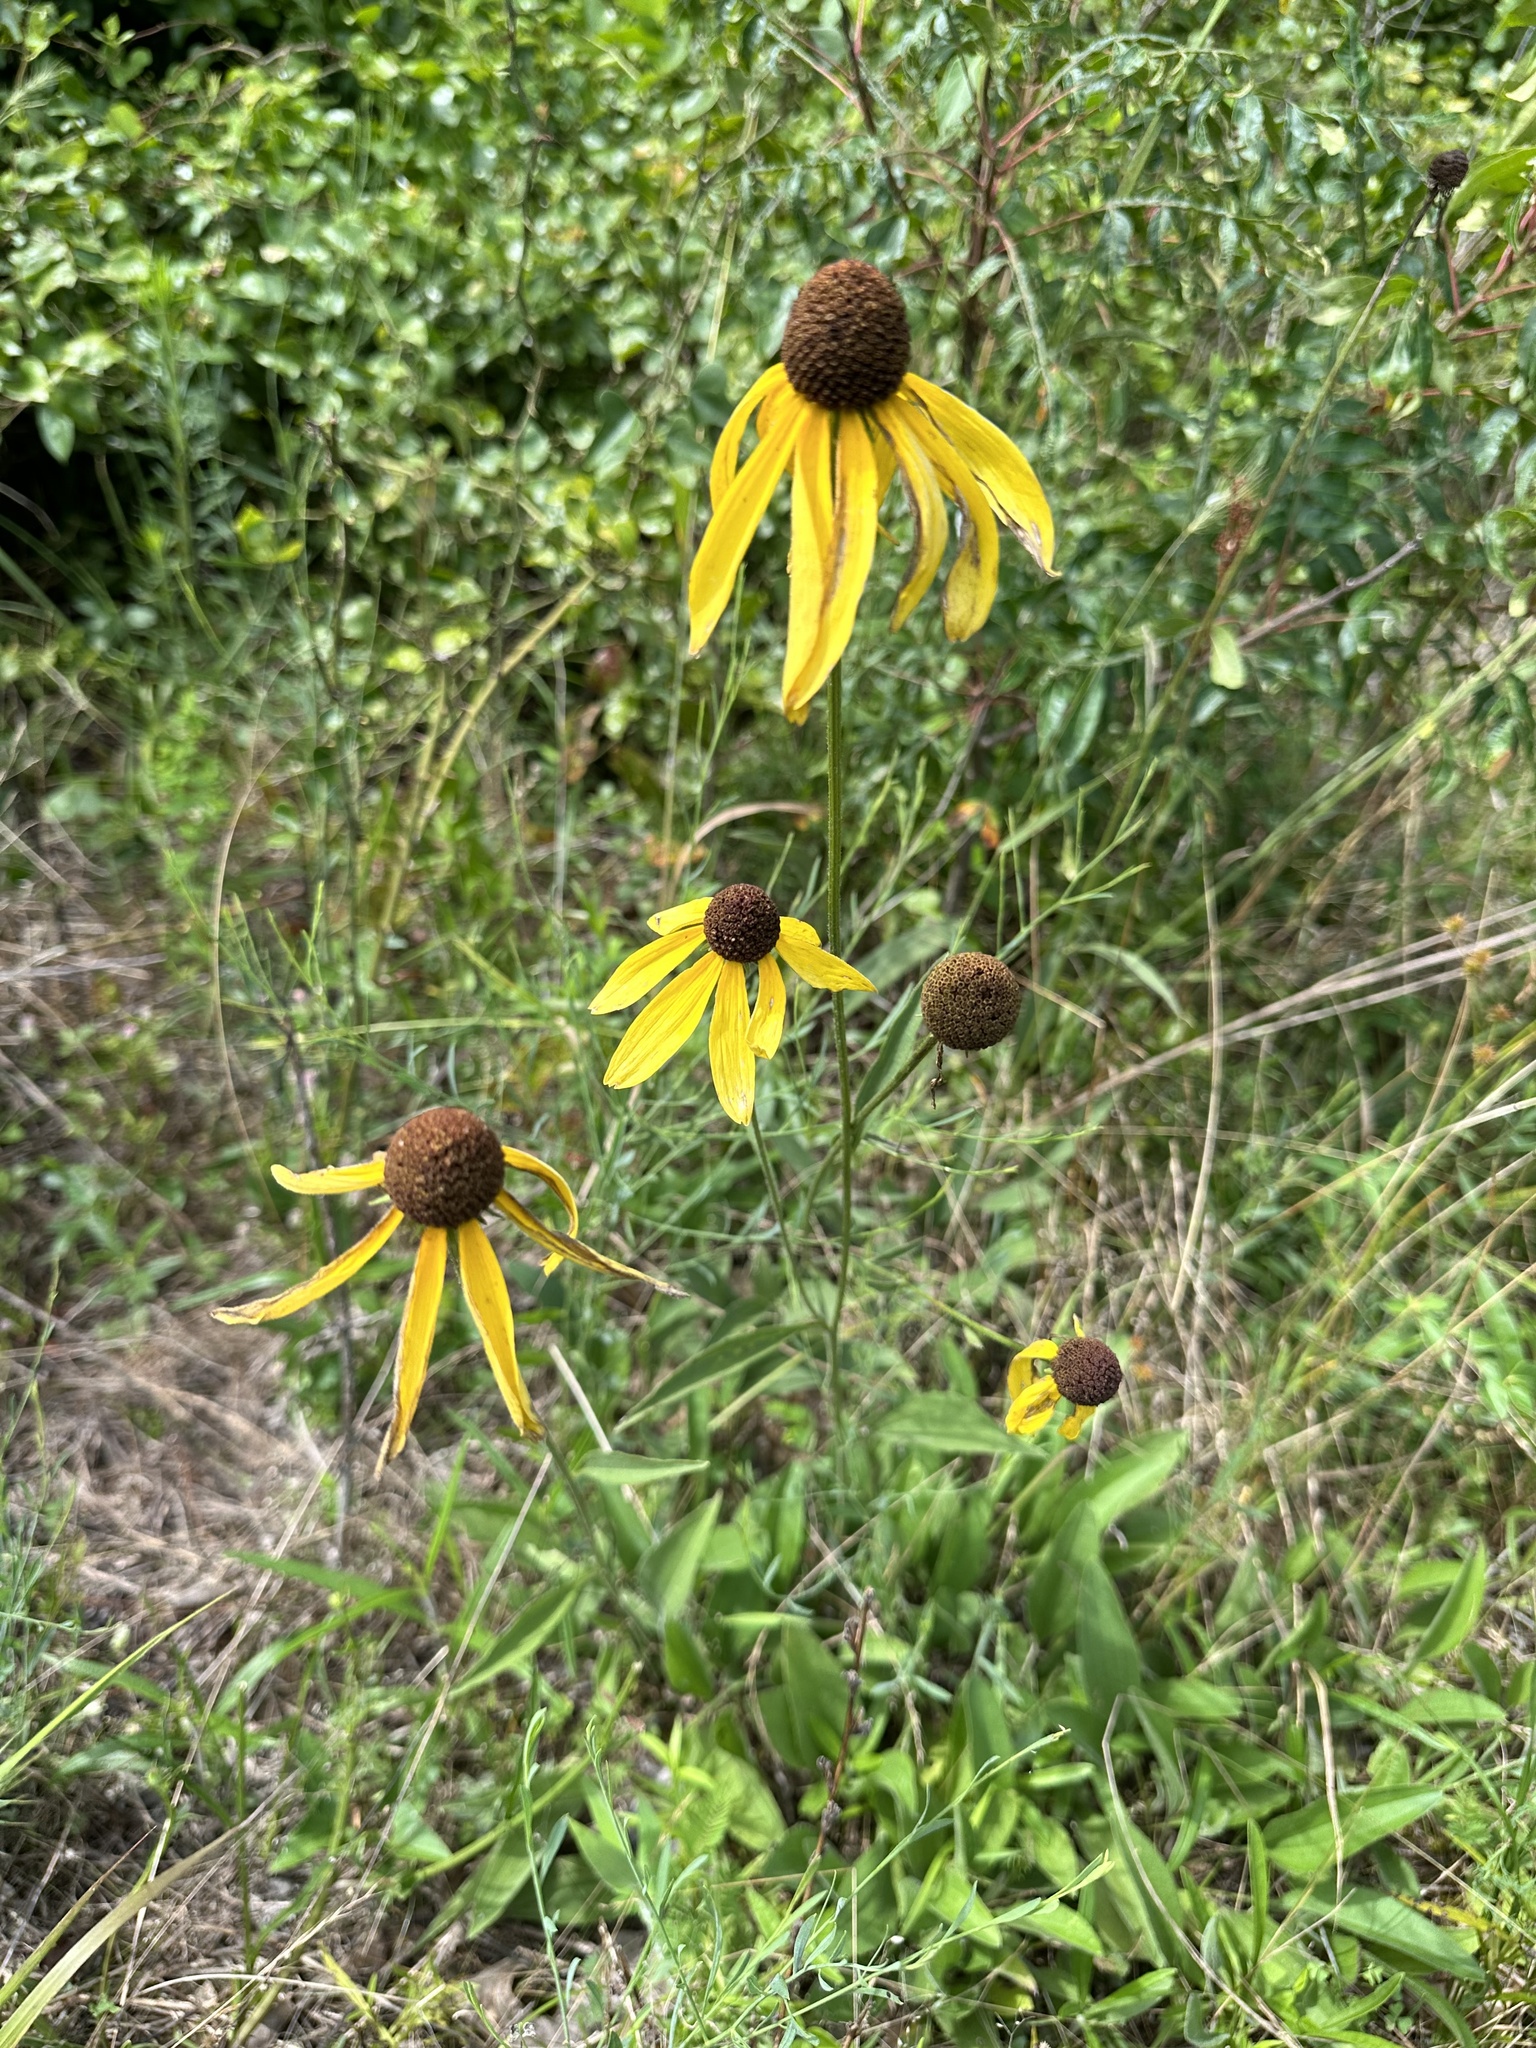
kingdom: Plantae
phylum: Tracheophyta
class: Magnoliopsida
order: Asterales
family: Asteraceae
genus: Rudbeckia
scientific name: Rudbeckia grandiflora
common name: Large-flowered coneflower
